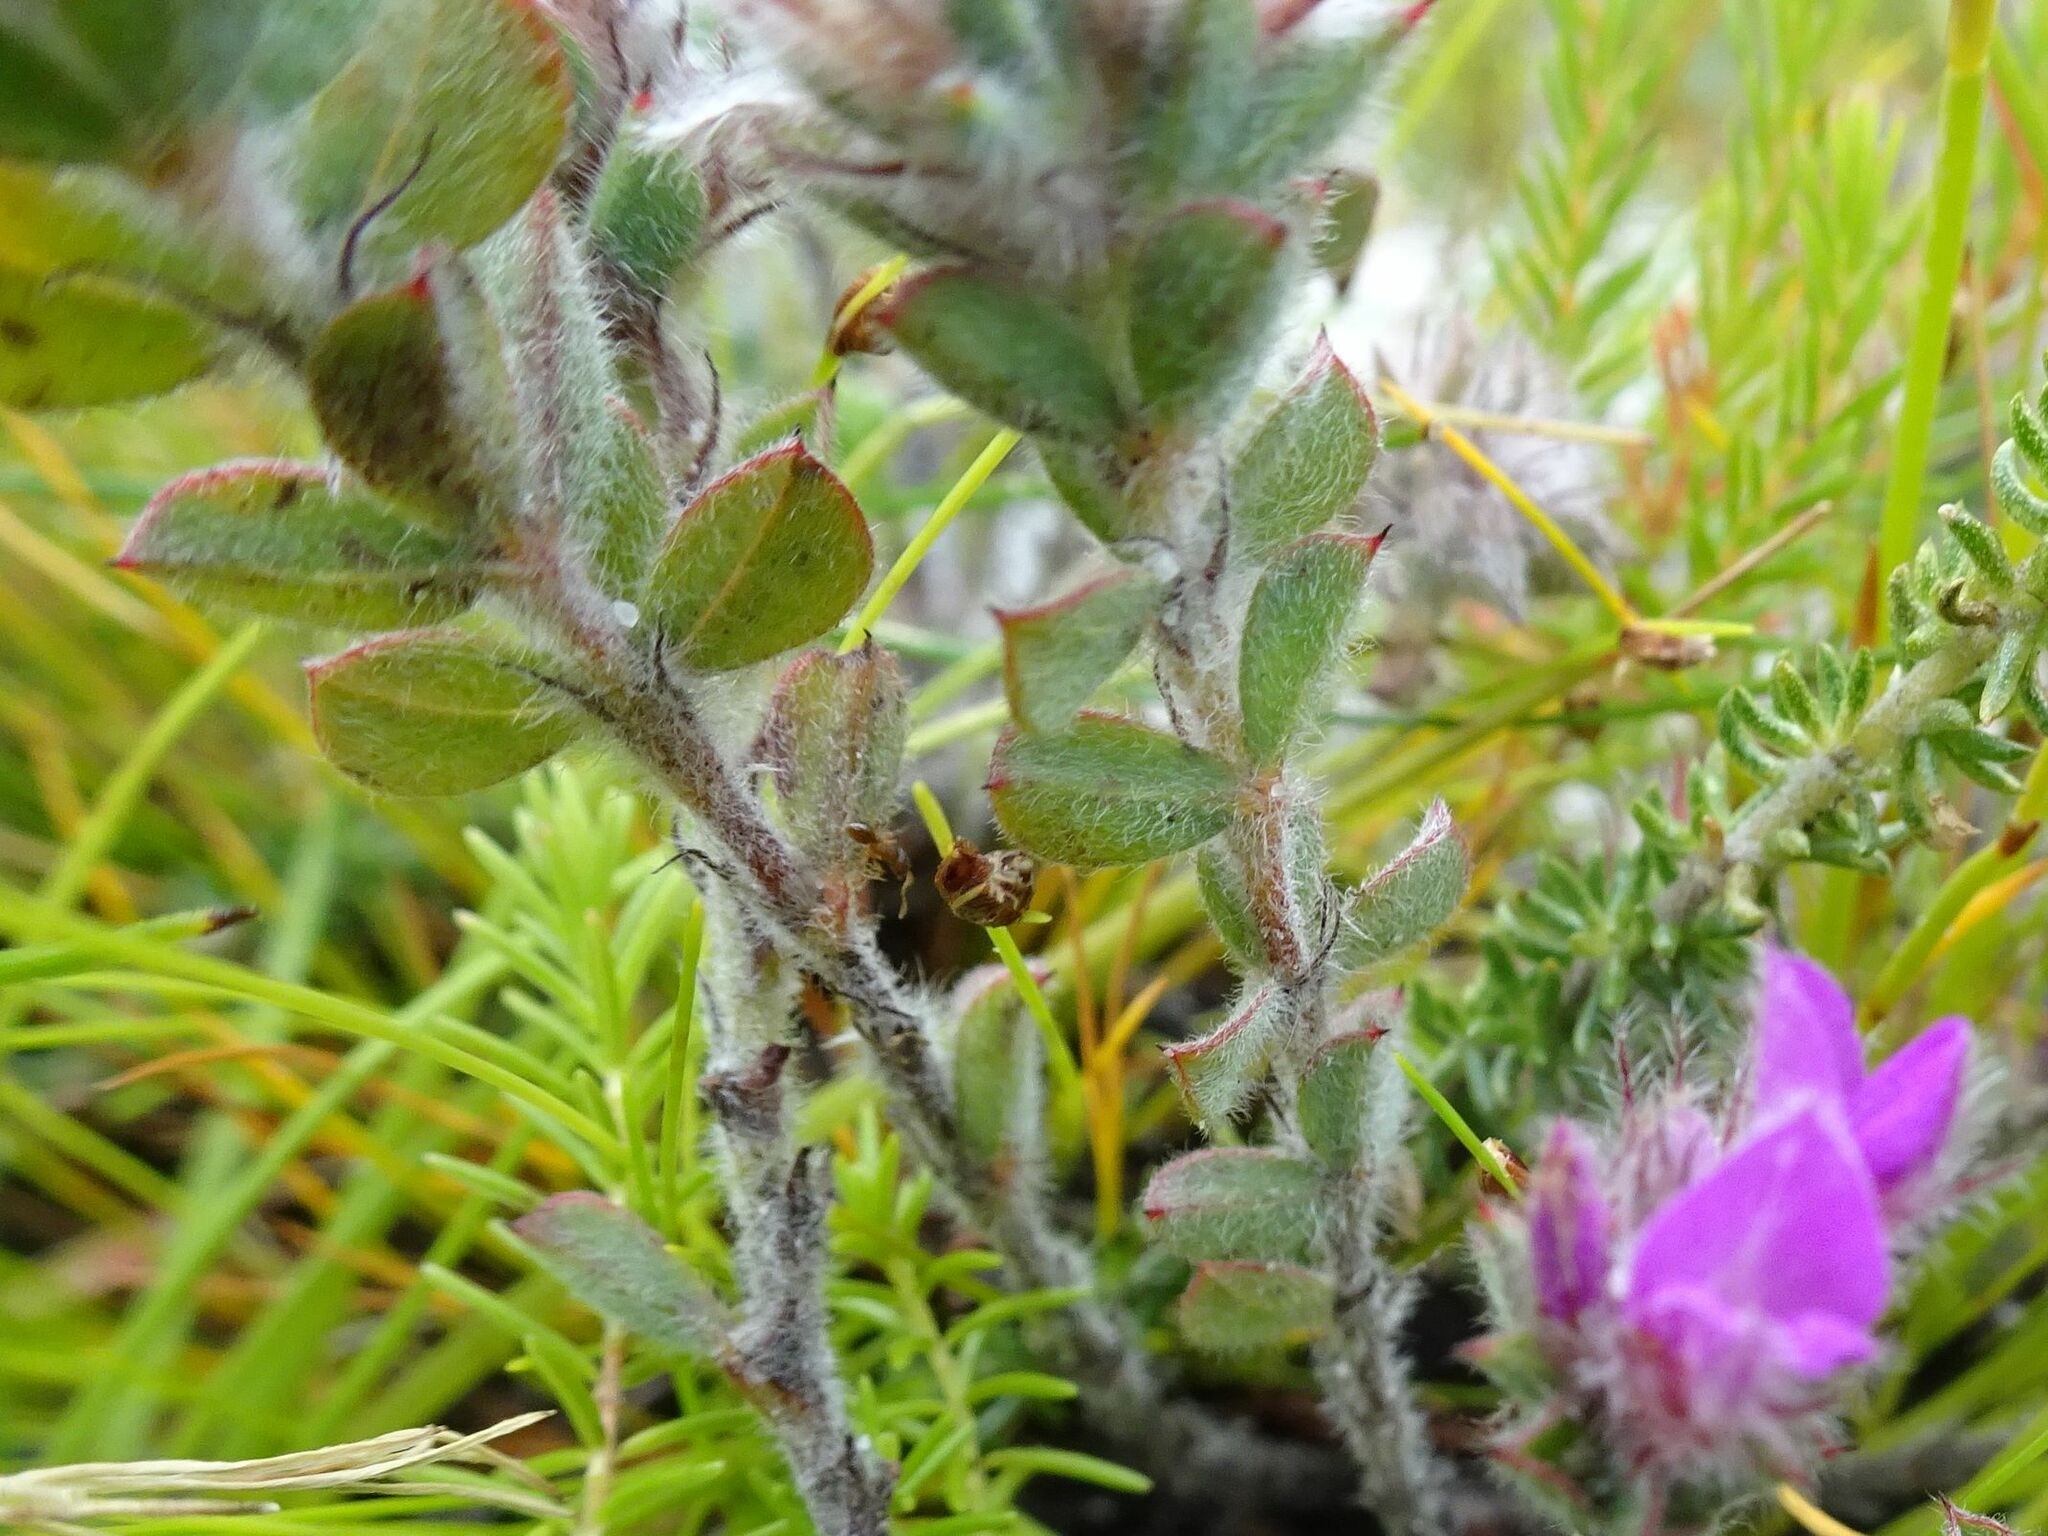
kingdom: Plantae
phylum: Tracheophyta
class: Magnoliopsida
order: Fabales
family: Fabaceae
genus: Indigofera
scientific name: Indigofera glomerata
